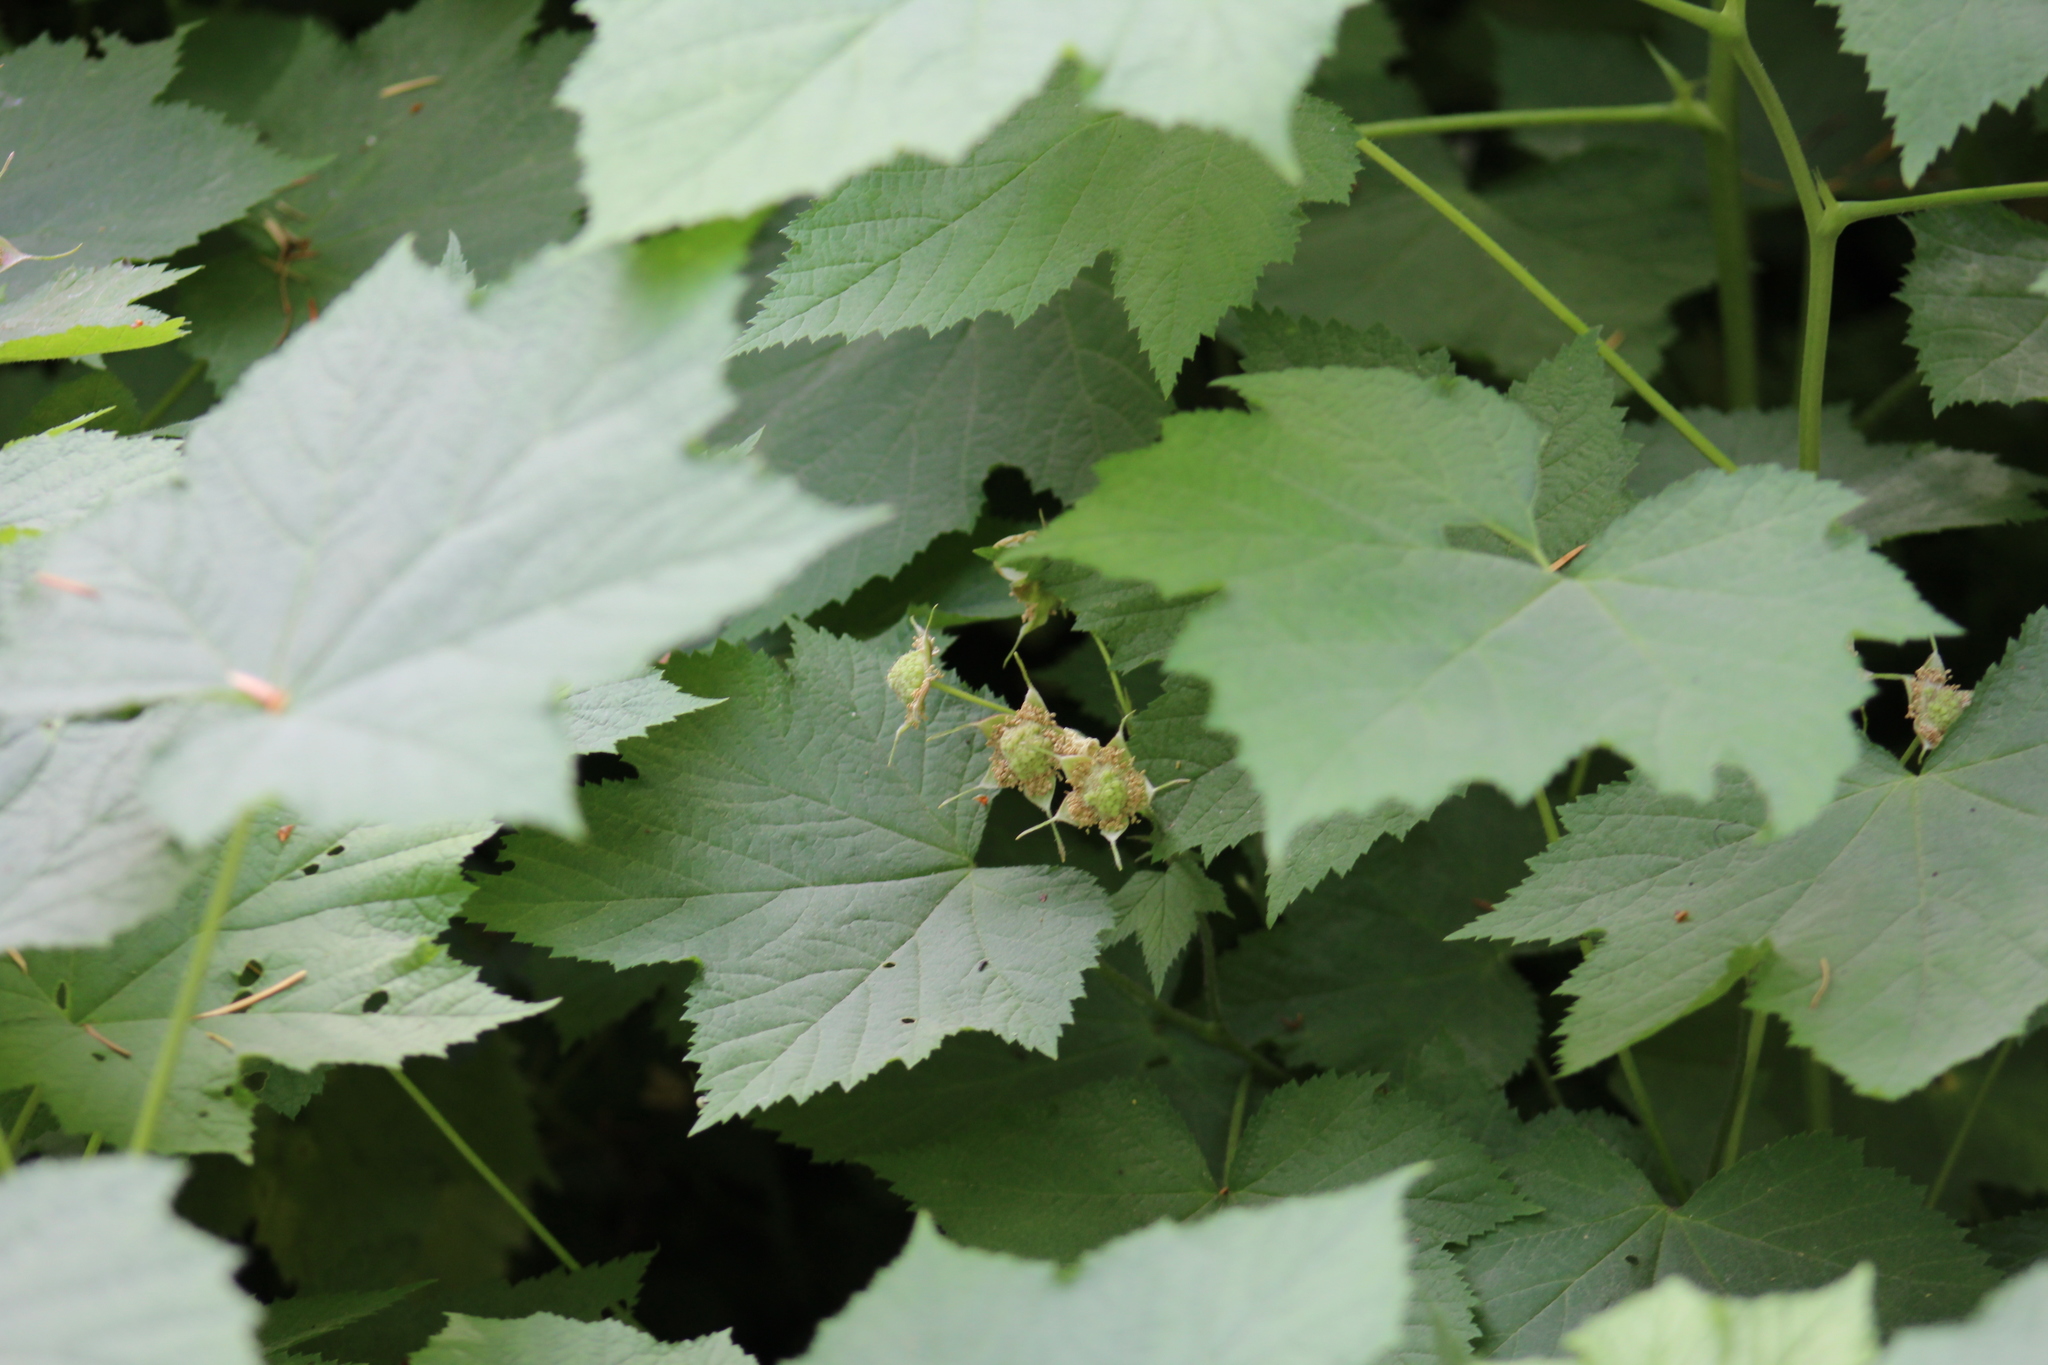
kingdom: Plantae
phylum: Tracheophyta
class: Magnoliopsida
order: Rosales
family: Rosaceae
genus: Rubus
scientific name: Rubus parviflorus
